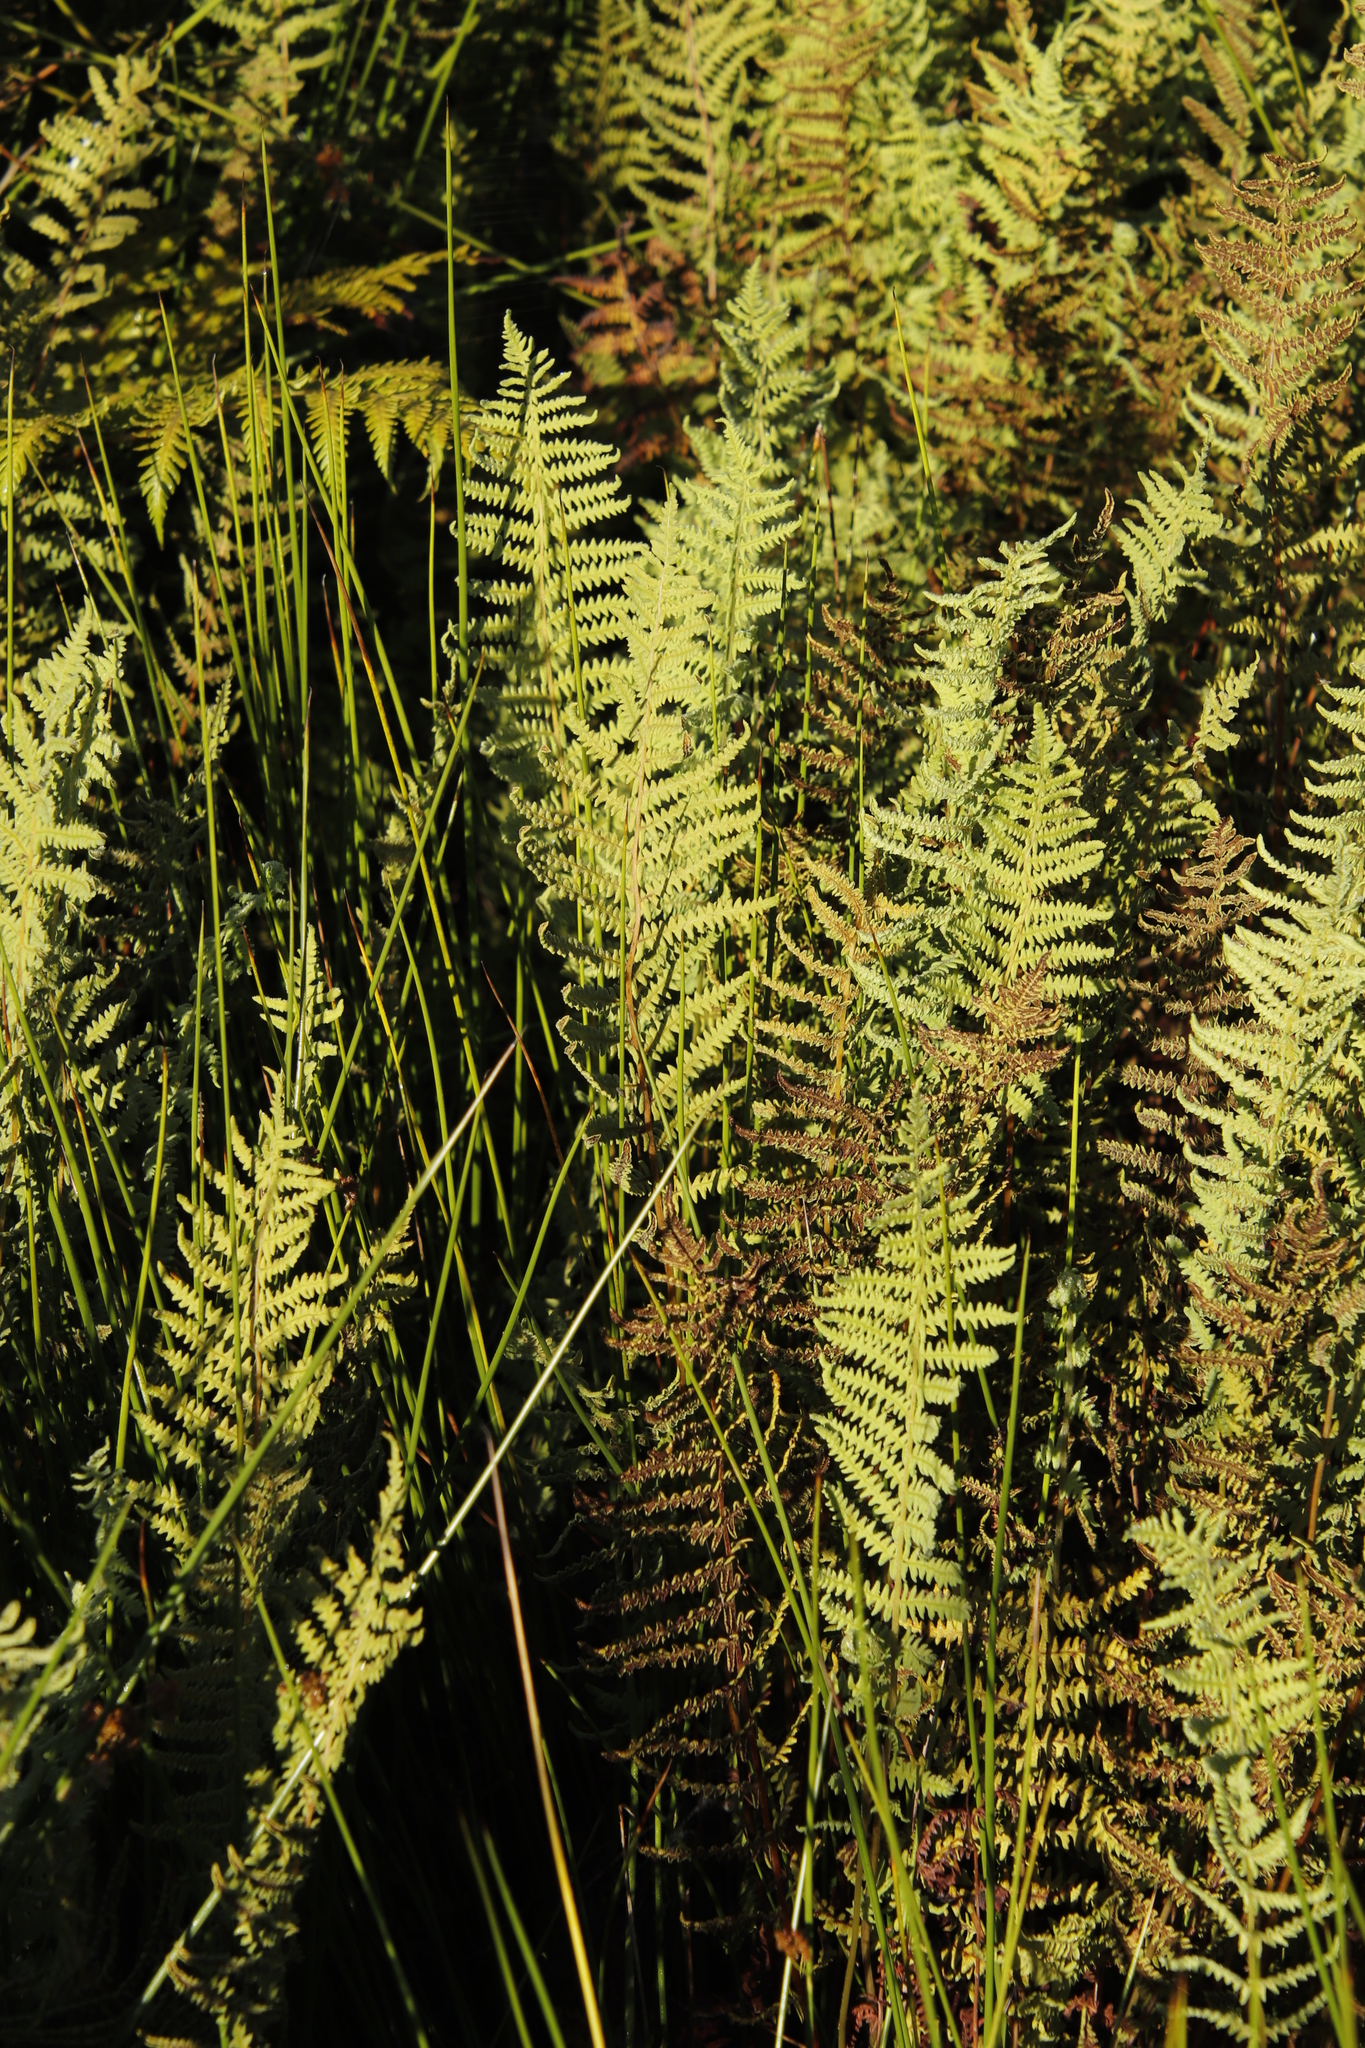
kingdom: Plantae
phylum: Tracheophyta
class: Liliopsida
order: Poales
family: Juncaceae
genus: Juncus
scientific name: Juncus effusus
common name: Soft rush
